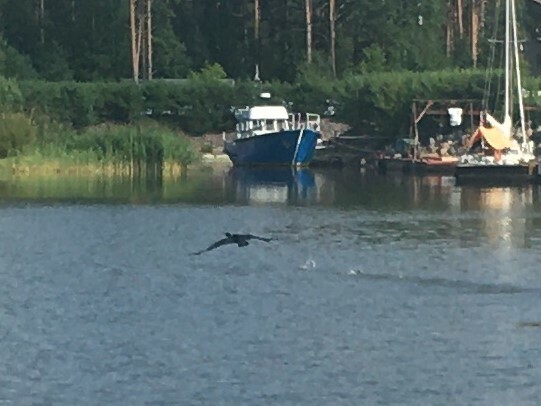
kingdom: Animalia
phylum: Chordata
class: Aves
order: Suliformes
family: Phalacrocoracidae
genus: Phalacrocorax
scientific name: Phalacrocorax carbo
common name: Great cormorant
